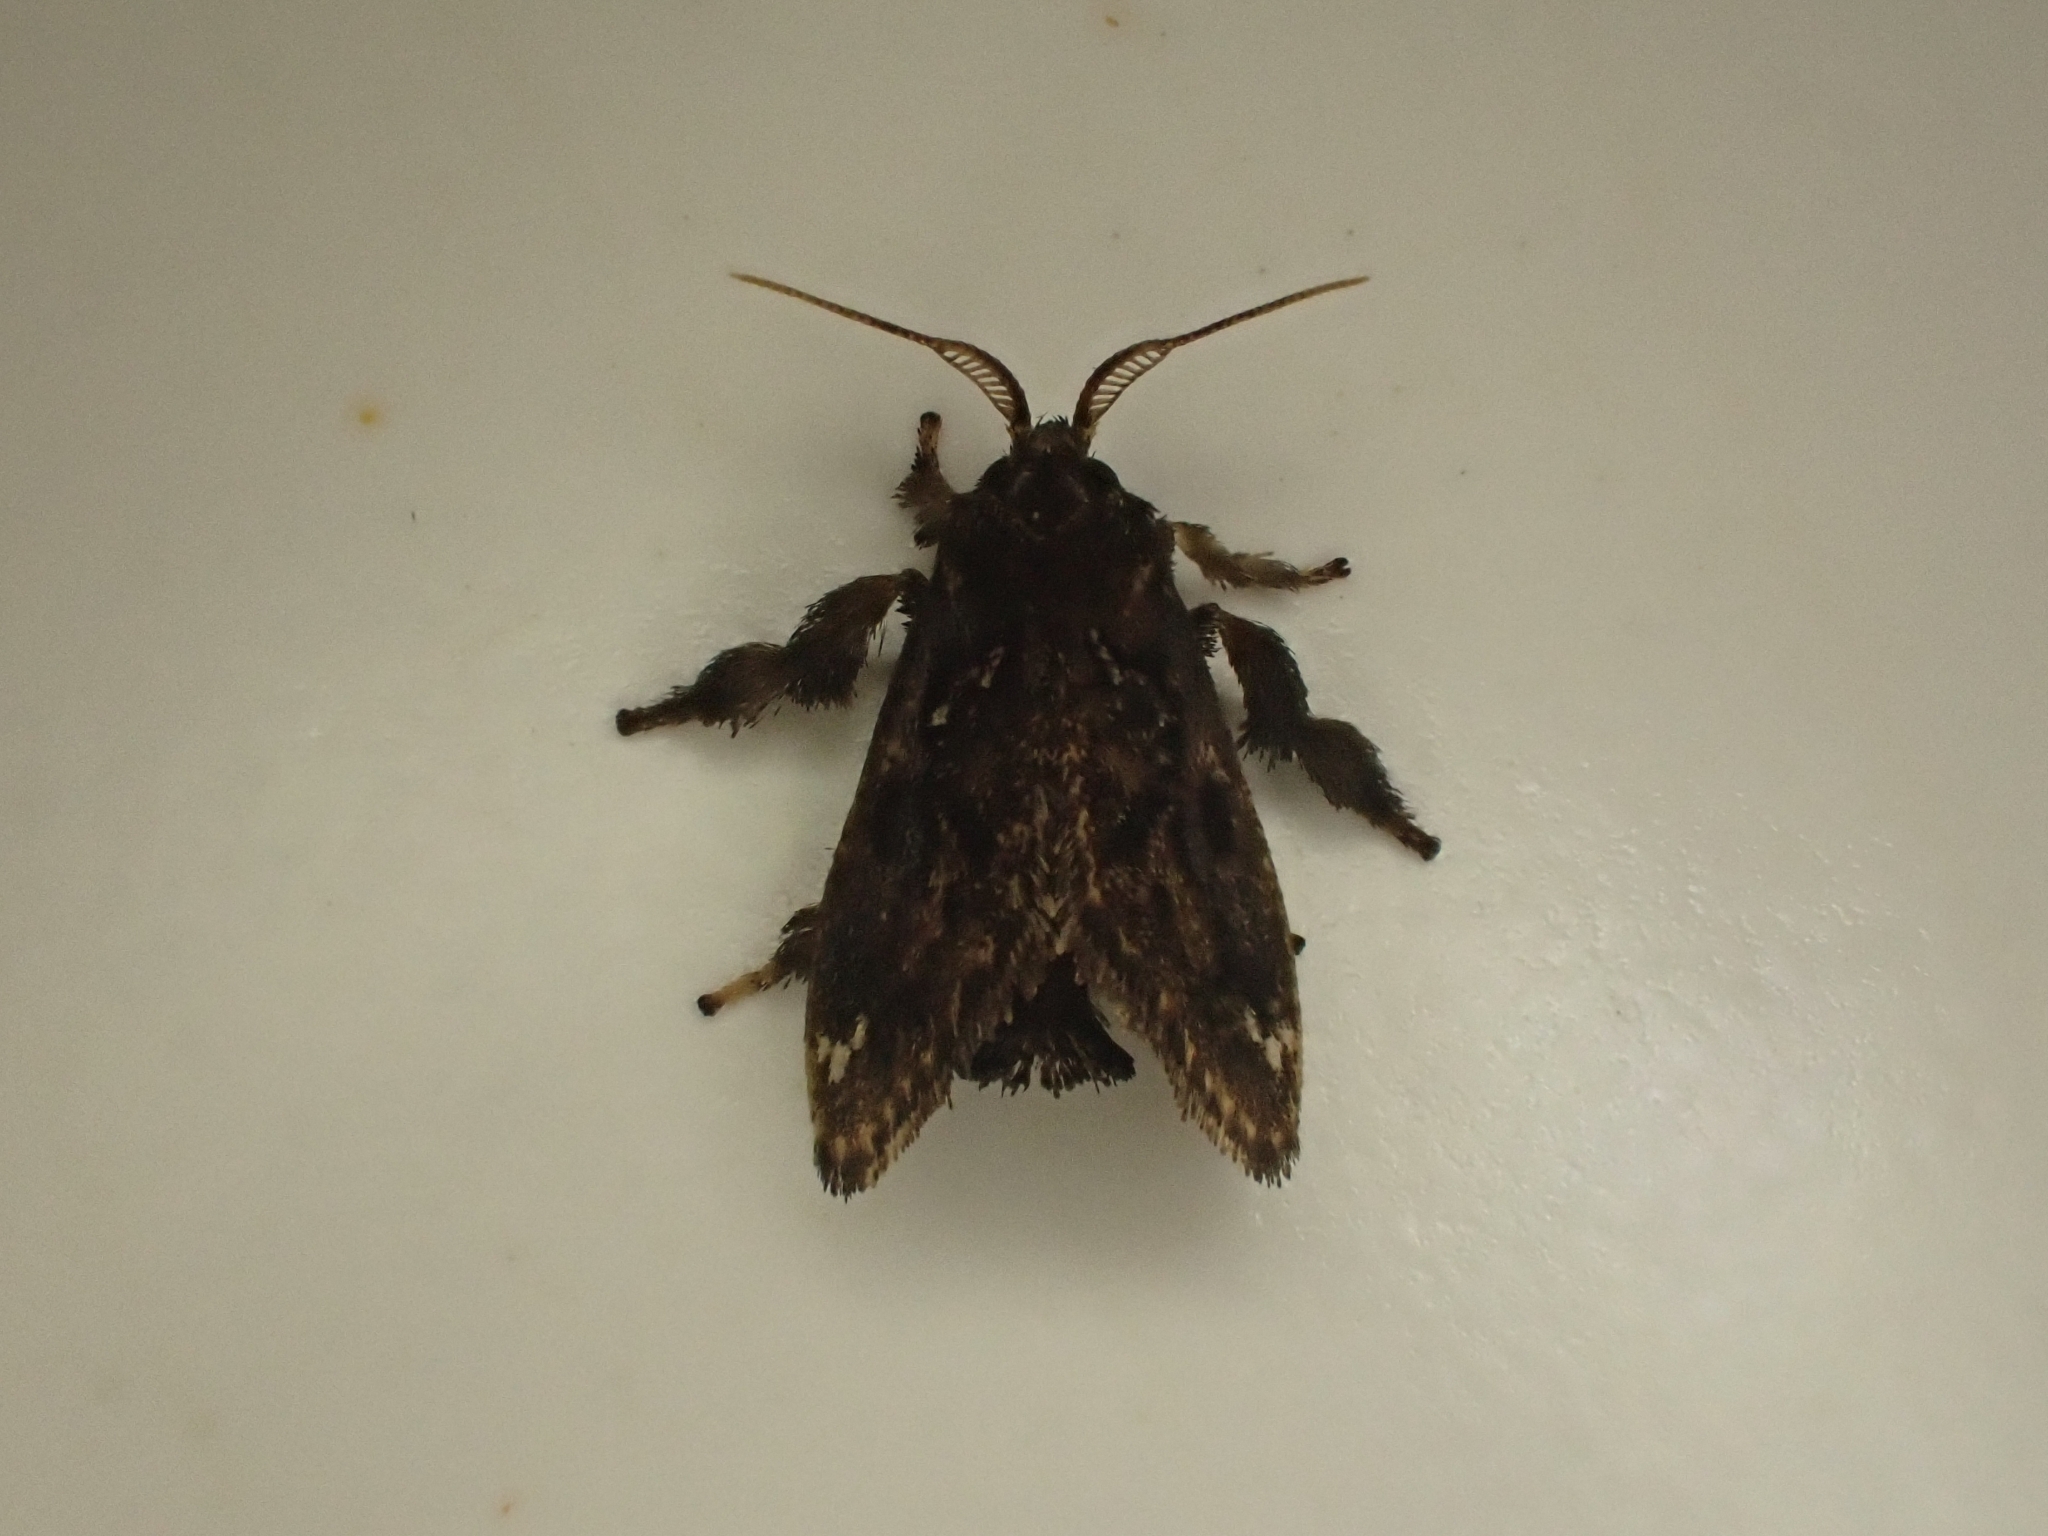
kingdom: Animalia
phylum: Arthropoda
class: Insecta
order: Lepidoptera
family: Limacodidae
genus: Euclea
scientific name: Euclea costaricana
